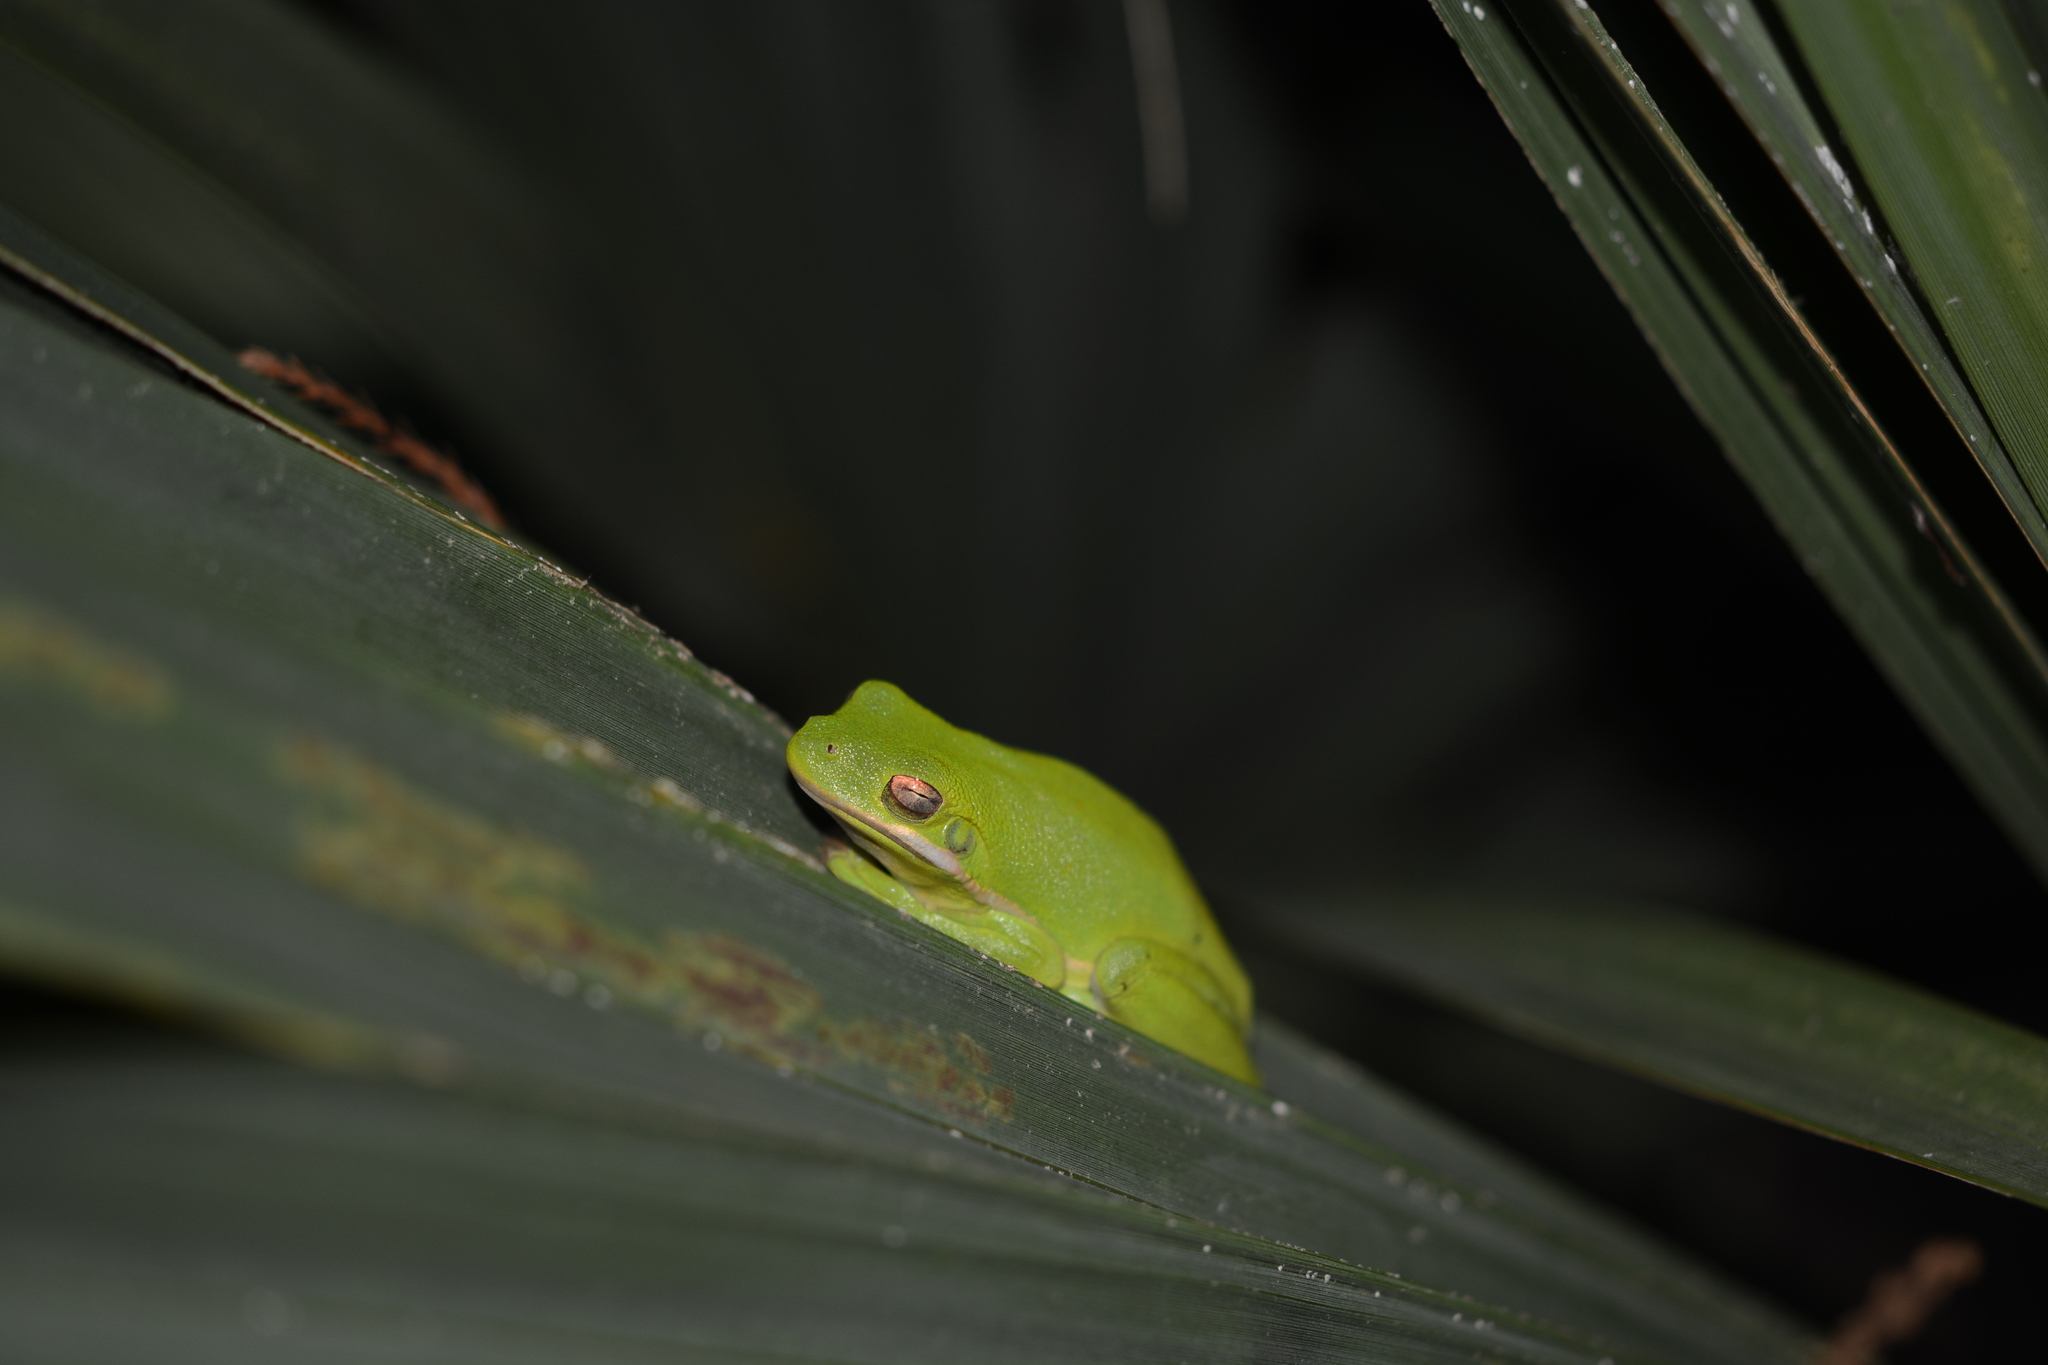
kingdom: Animalia
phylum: Chordata
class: Amphibia
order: Anura
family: Hylidae
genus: Dryophytes
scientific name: Dryophytes cinereus
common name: Green treefrog
